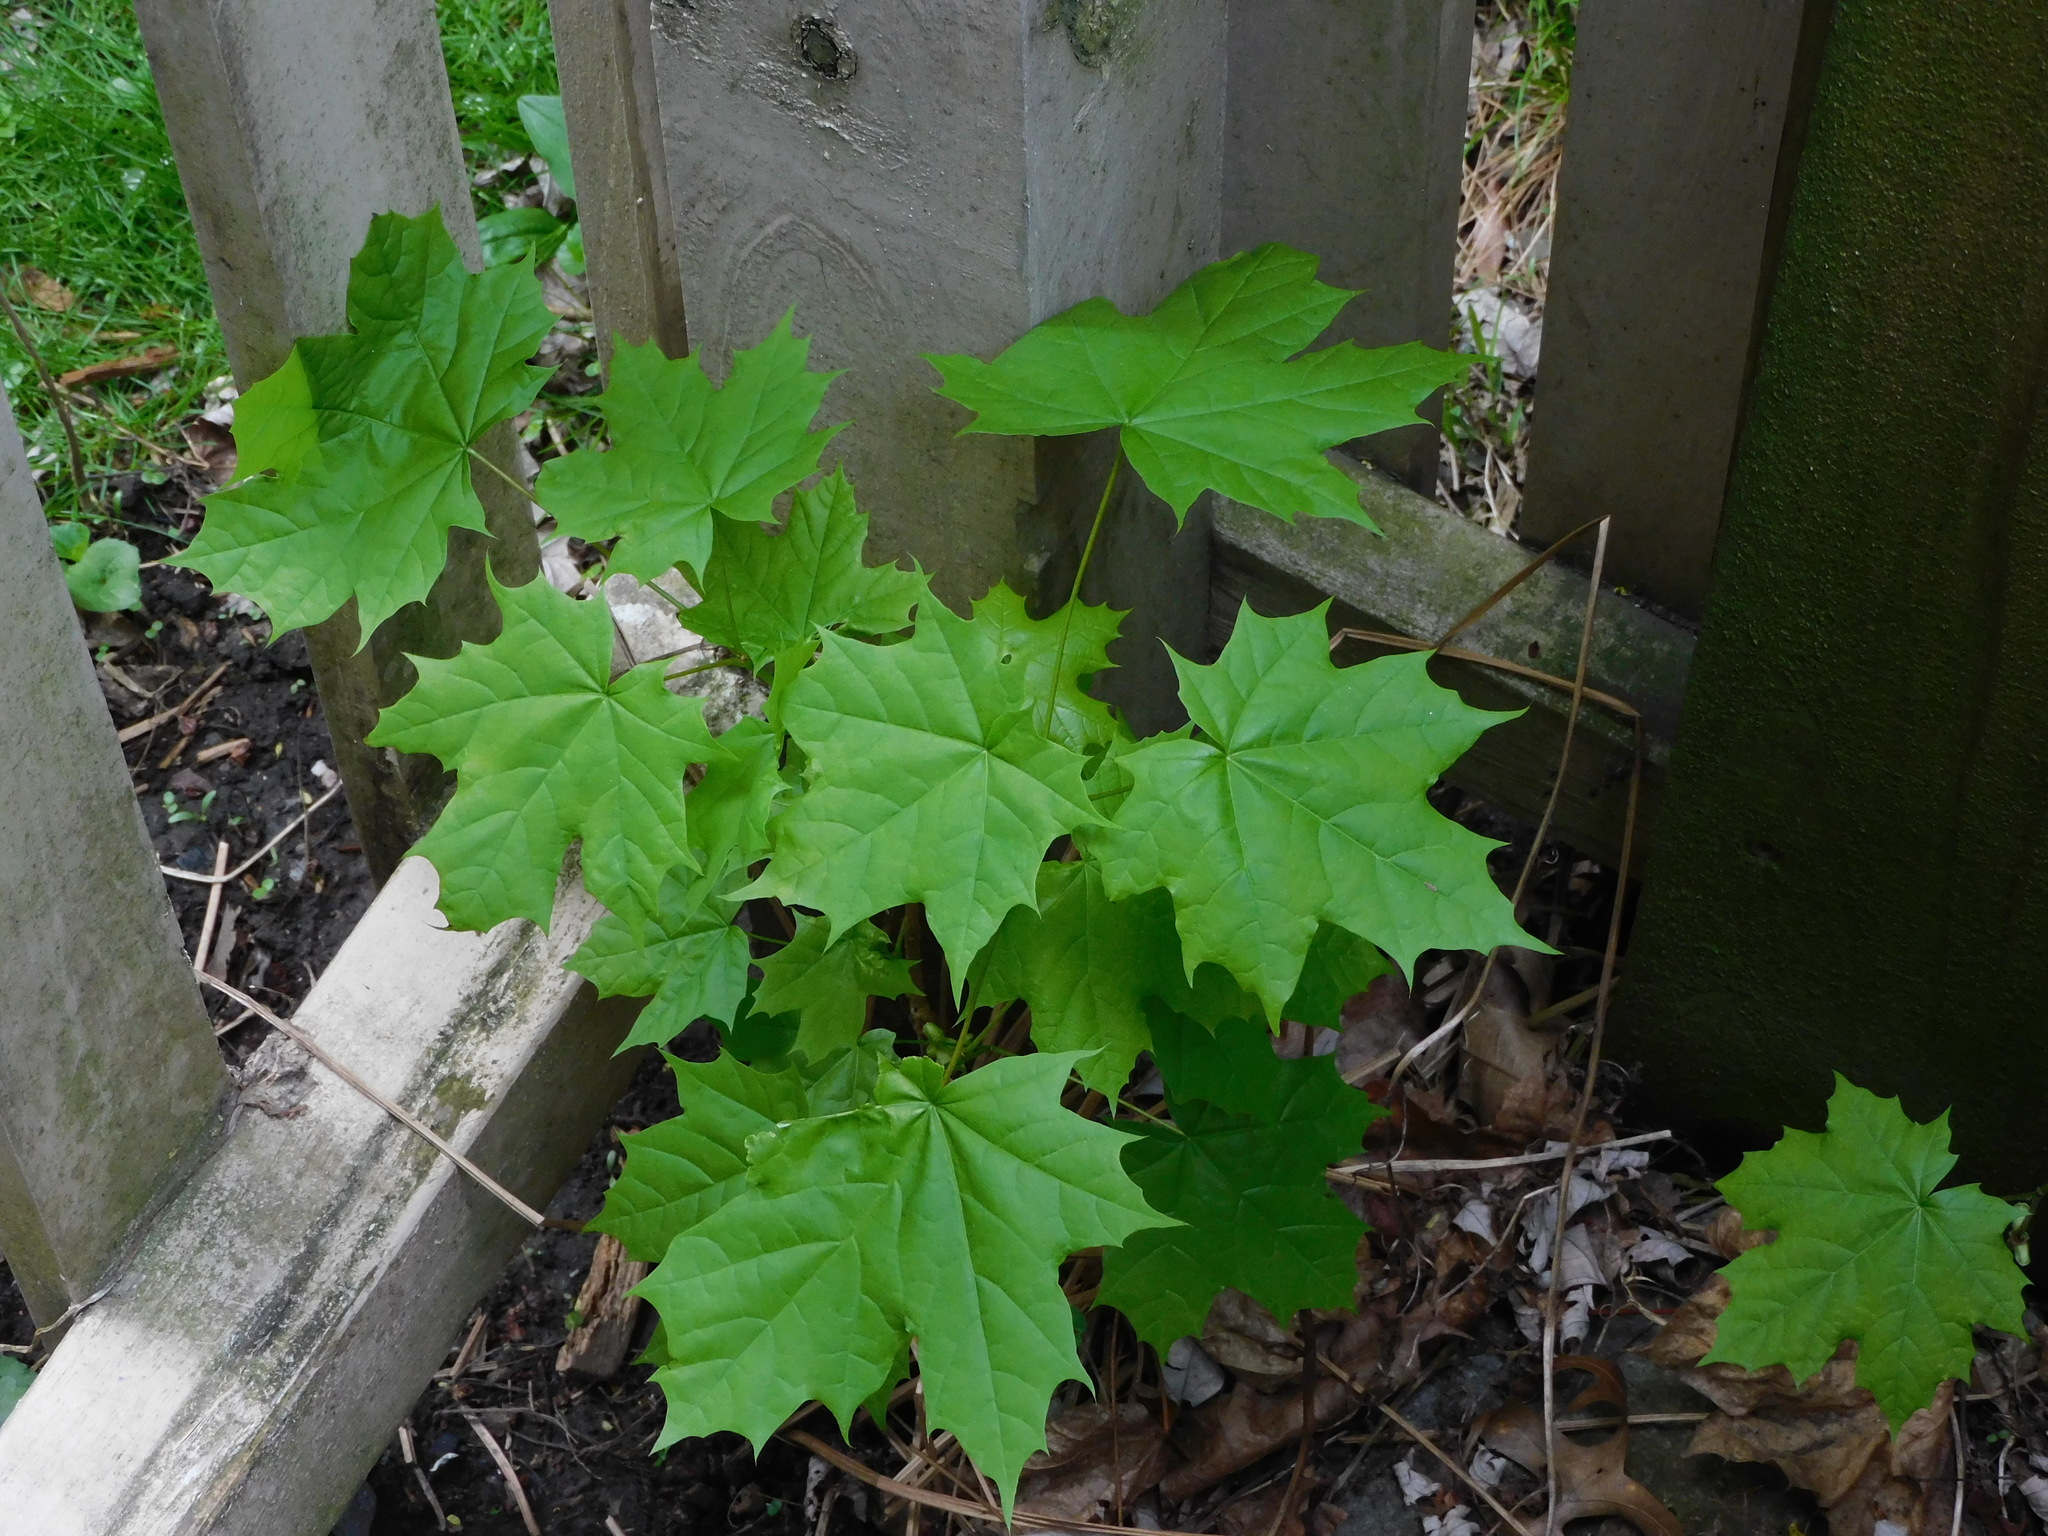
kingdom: Plantae
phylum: Tracheophyta
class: Magnoliopsida
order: Sapindales
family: Sapindaceae
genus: Acer
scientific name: Acer platanoides
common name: Norway maple
